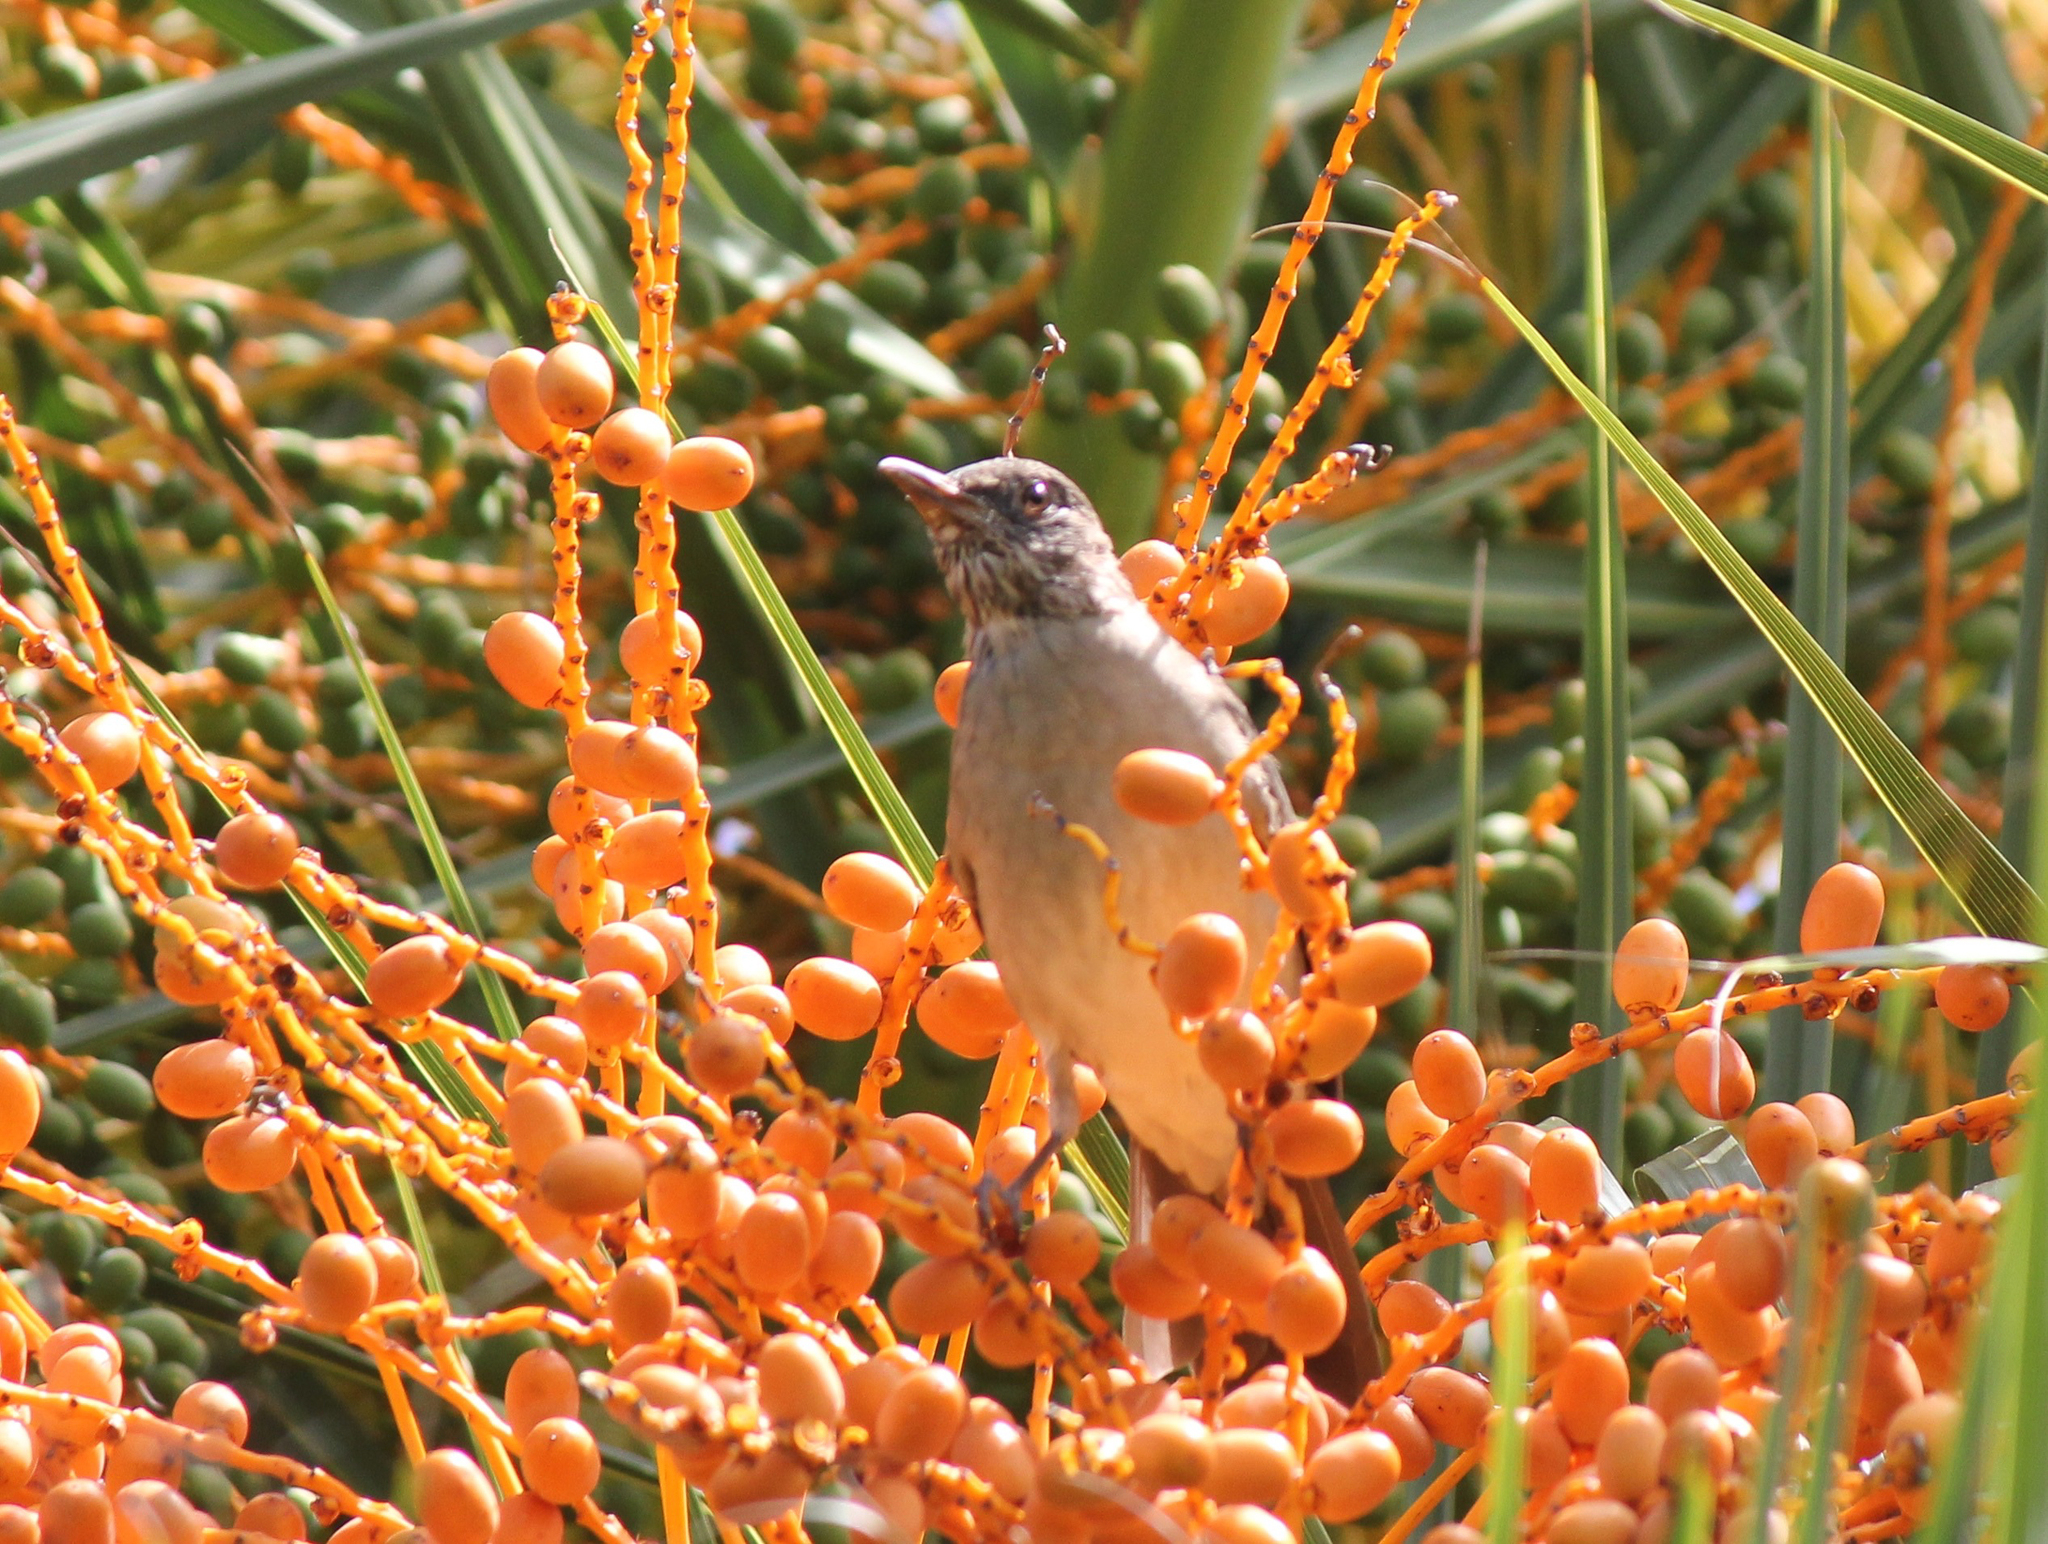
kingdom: Animalia
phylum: Chordata
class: Aves
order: Passeriformes
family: Turdidae
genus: Turdus
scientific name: Turdus amaurochalinus
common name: Creamy-bellied thrush
